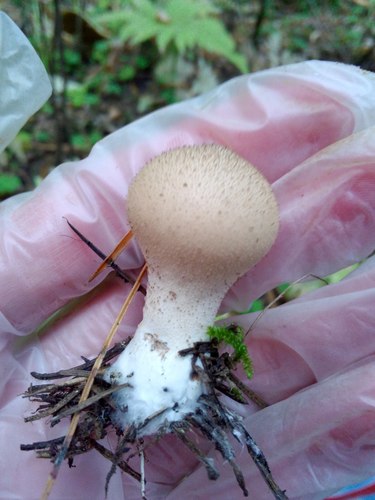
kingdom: Fungi
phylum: Basidiomycota
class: Agaricomycetes
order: Agaricales
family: Lycoperdaceae
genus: Lycoperdon
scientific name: Lycoperdon
